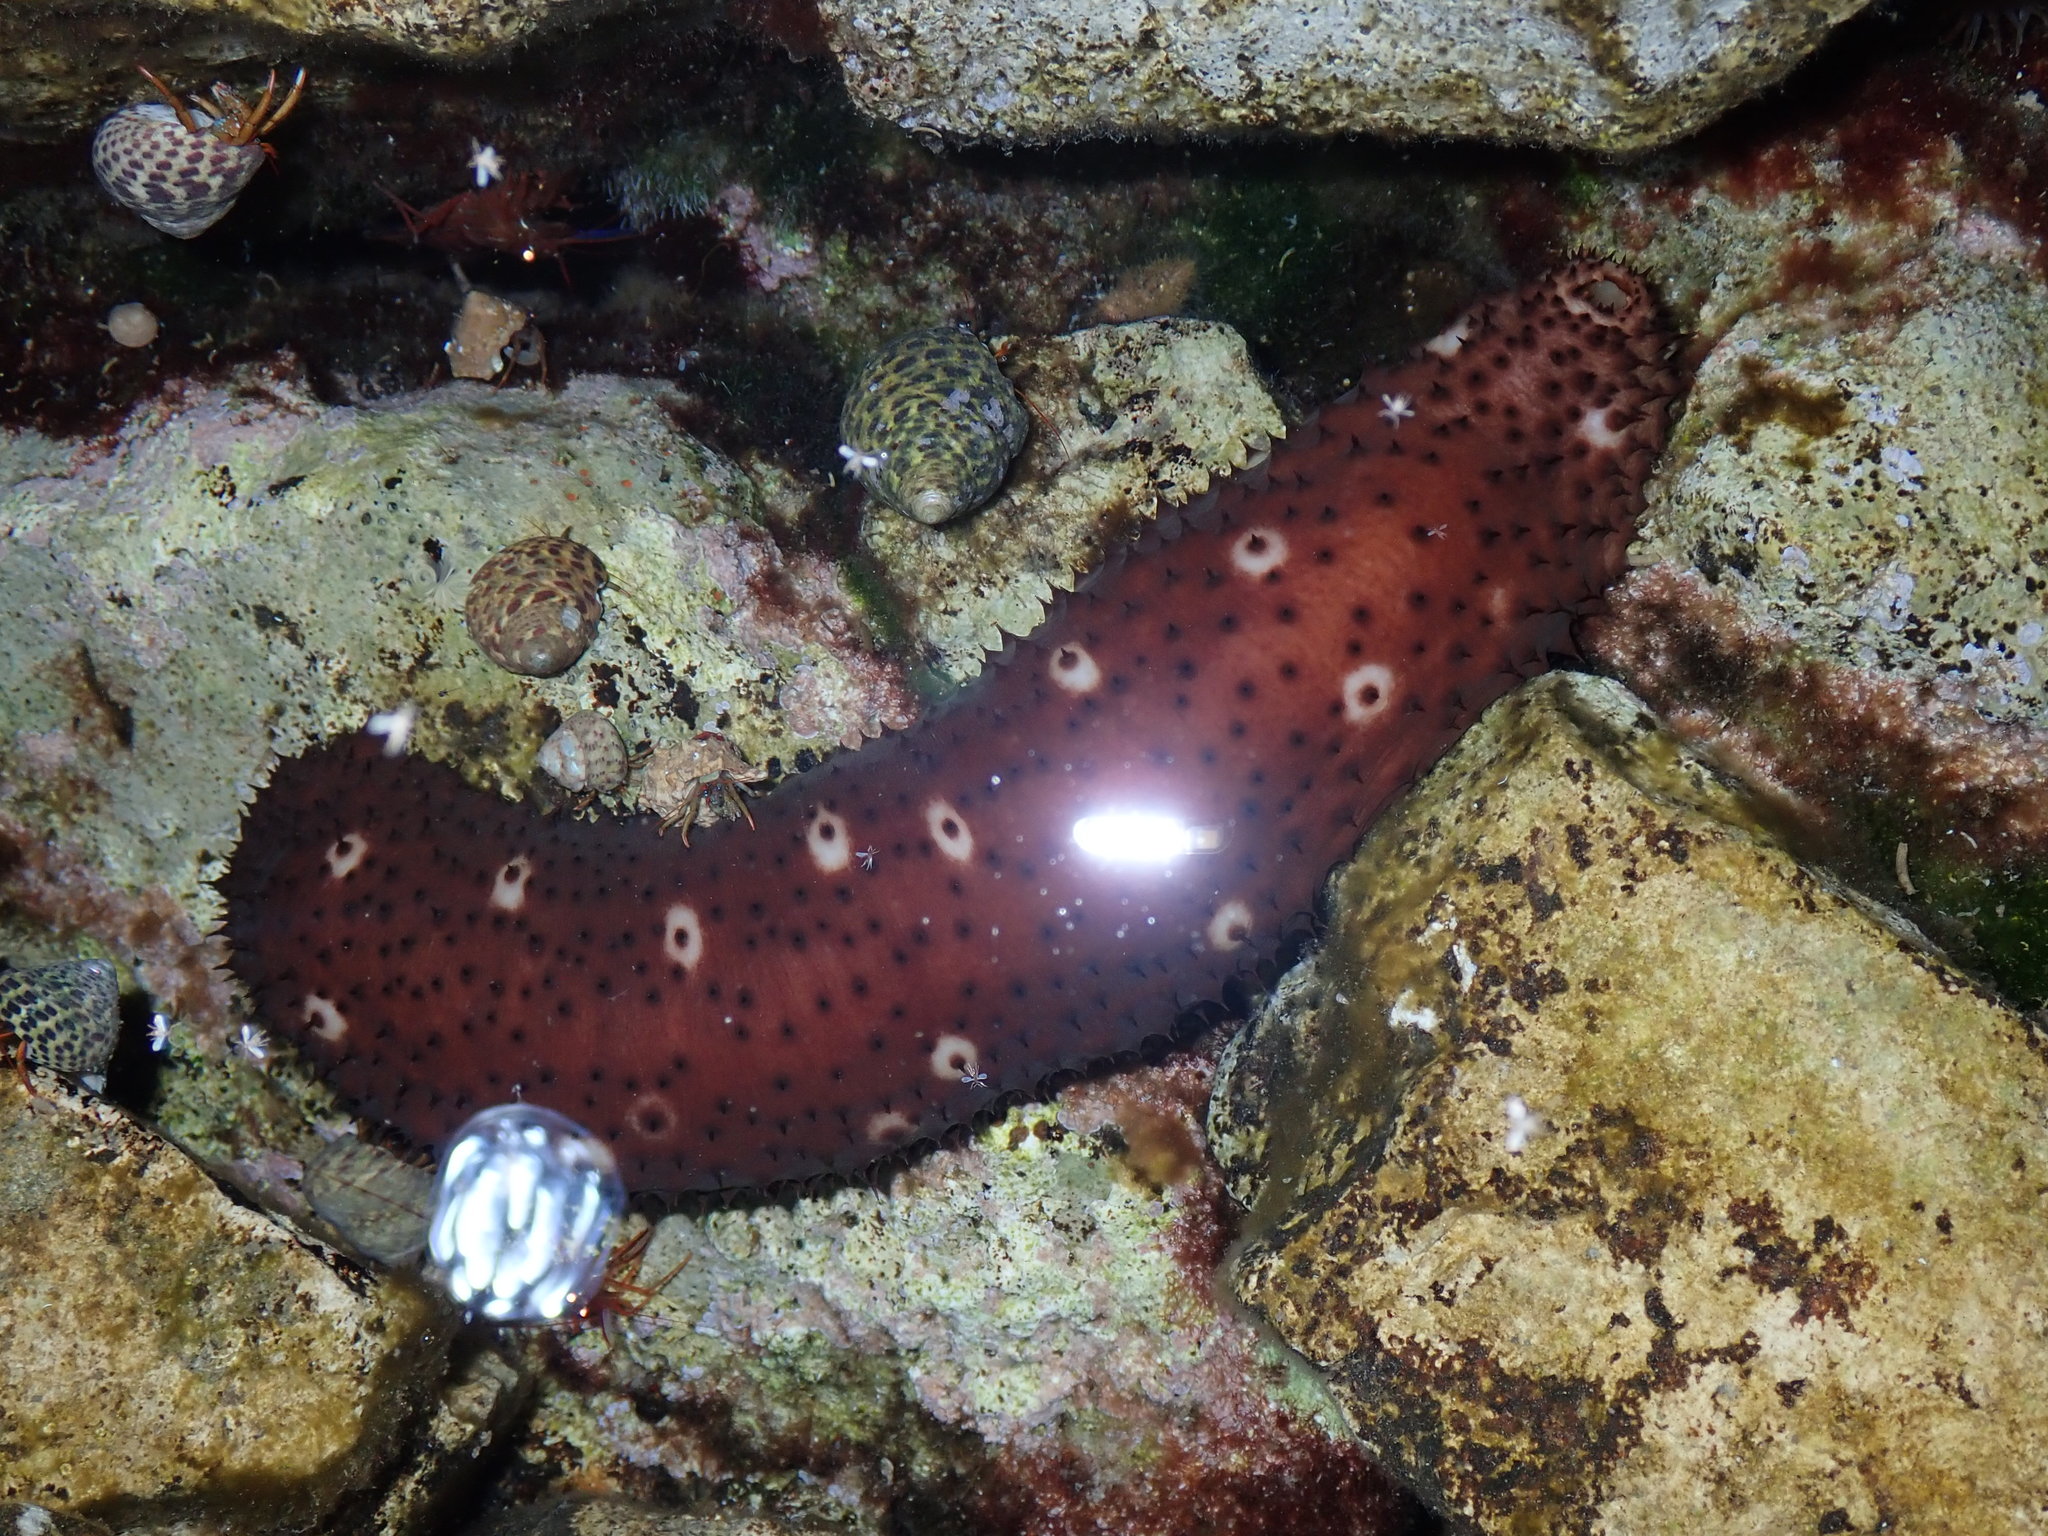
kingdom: Animalia
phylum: Echinodermata
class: Holothuroidea
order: Holothuriida
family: Holothuriidae
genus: Holothuria
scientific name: Holothuria sanctori
